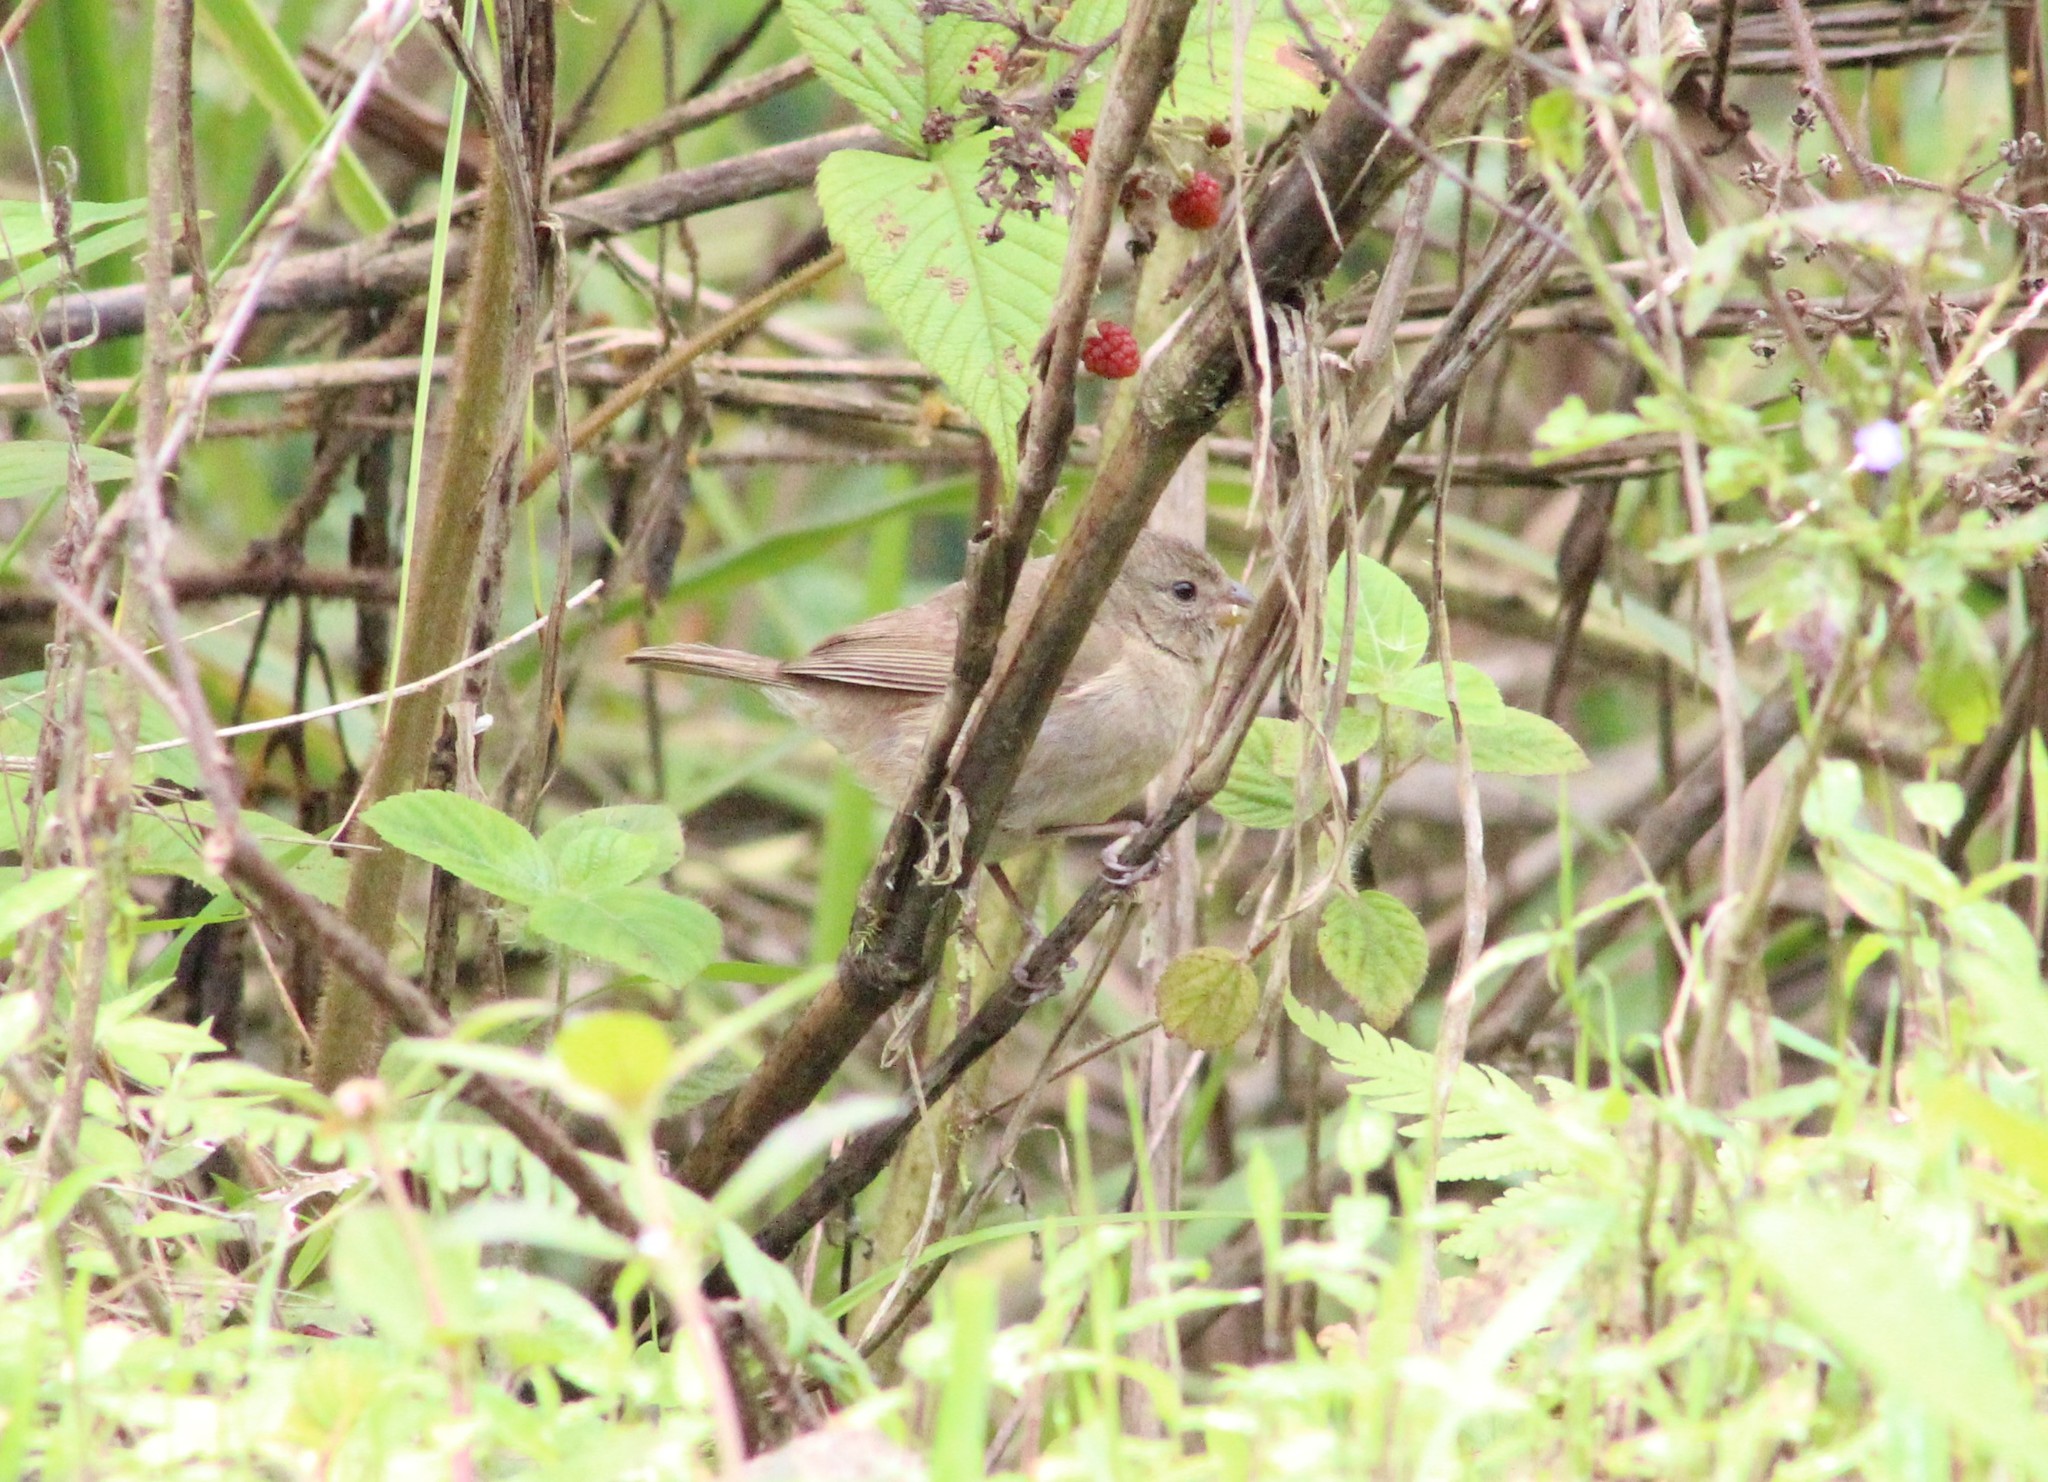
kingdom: Animalia
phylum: Chordata
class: Aves
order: Passeriformes
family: Thraupidae
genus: Sporophila
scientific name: Sporophila corvina
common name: Variable seedeater
